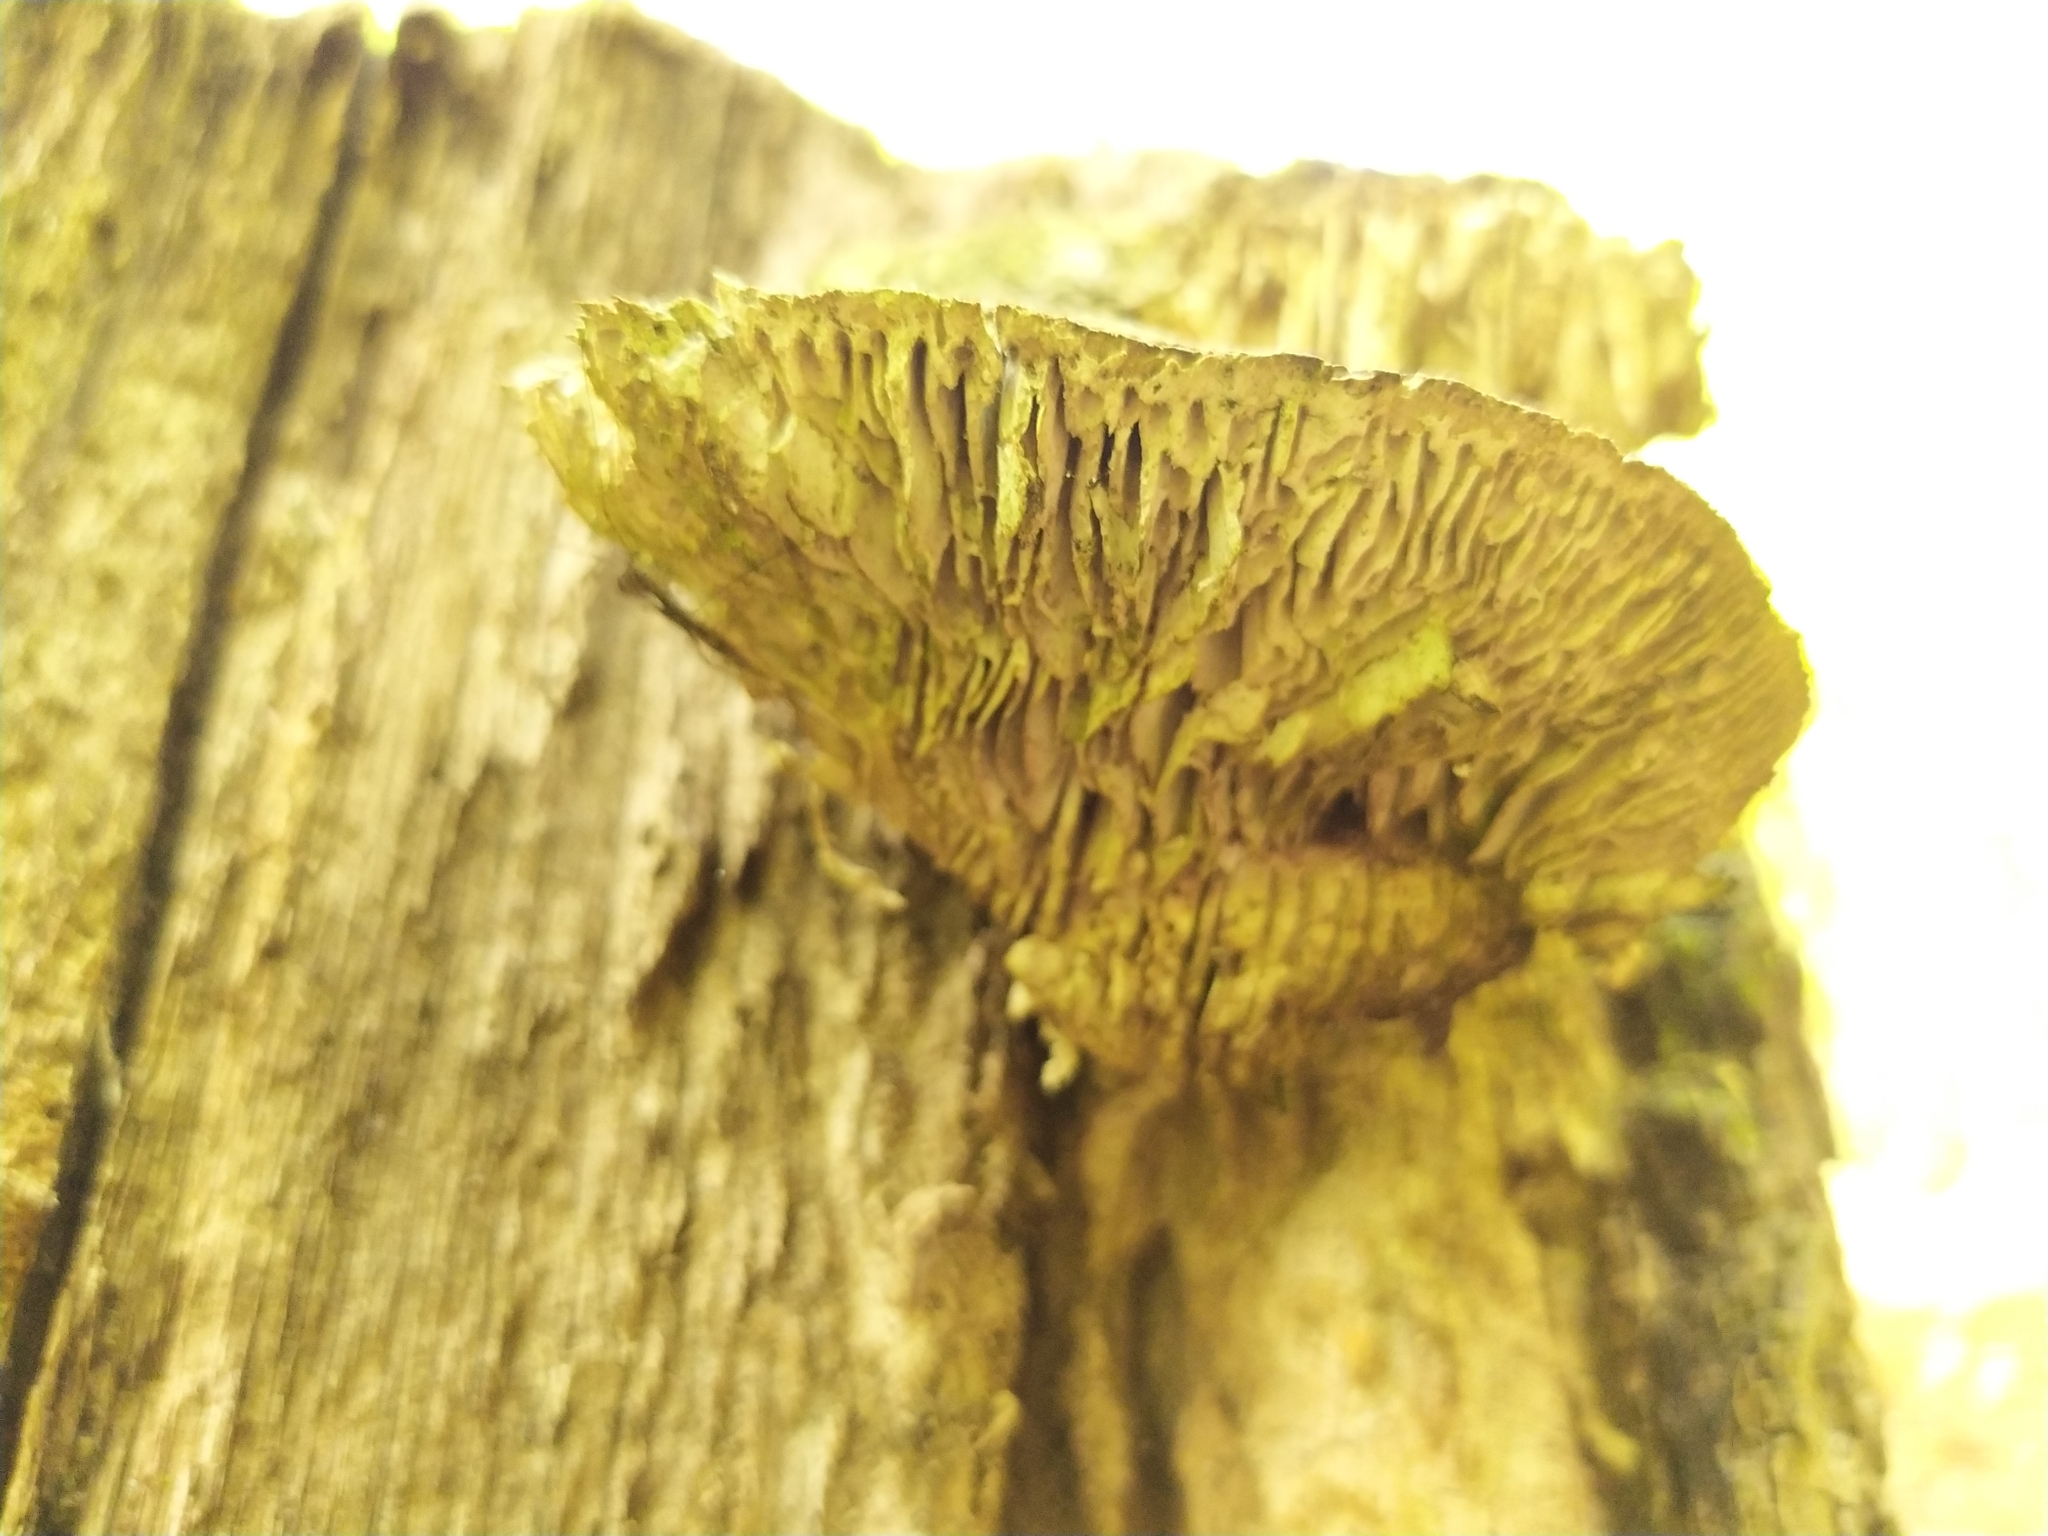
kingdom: Fungi
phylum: Basidiomycota
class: Agaricomycetes
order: Polyporales
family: Polyporaceae
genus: Lenzites
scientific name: Lenzites betulinus
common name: Birch mazegill
